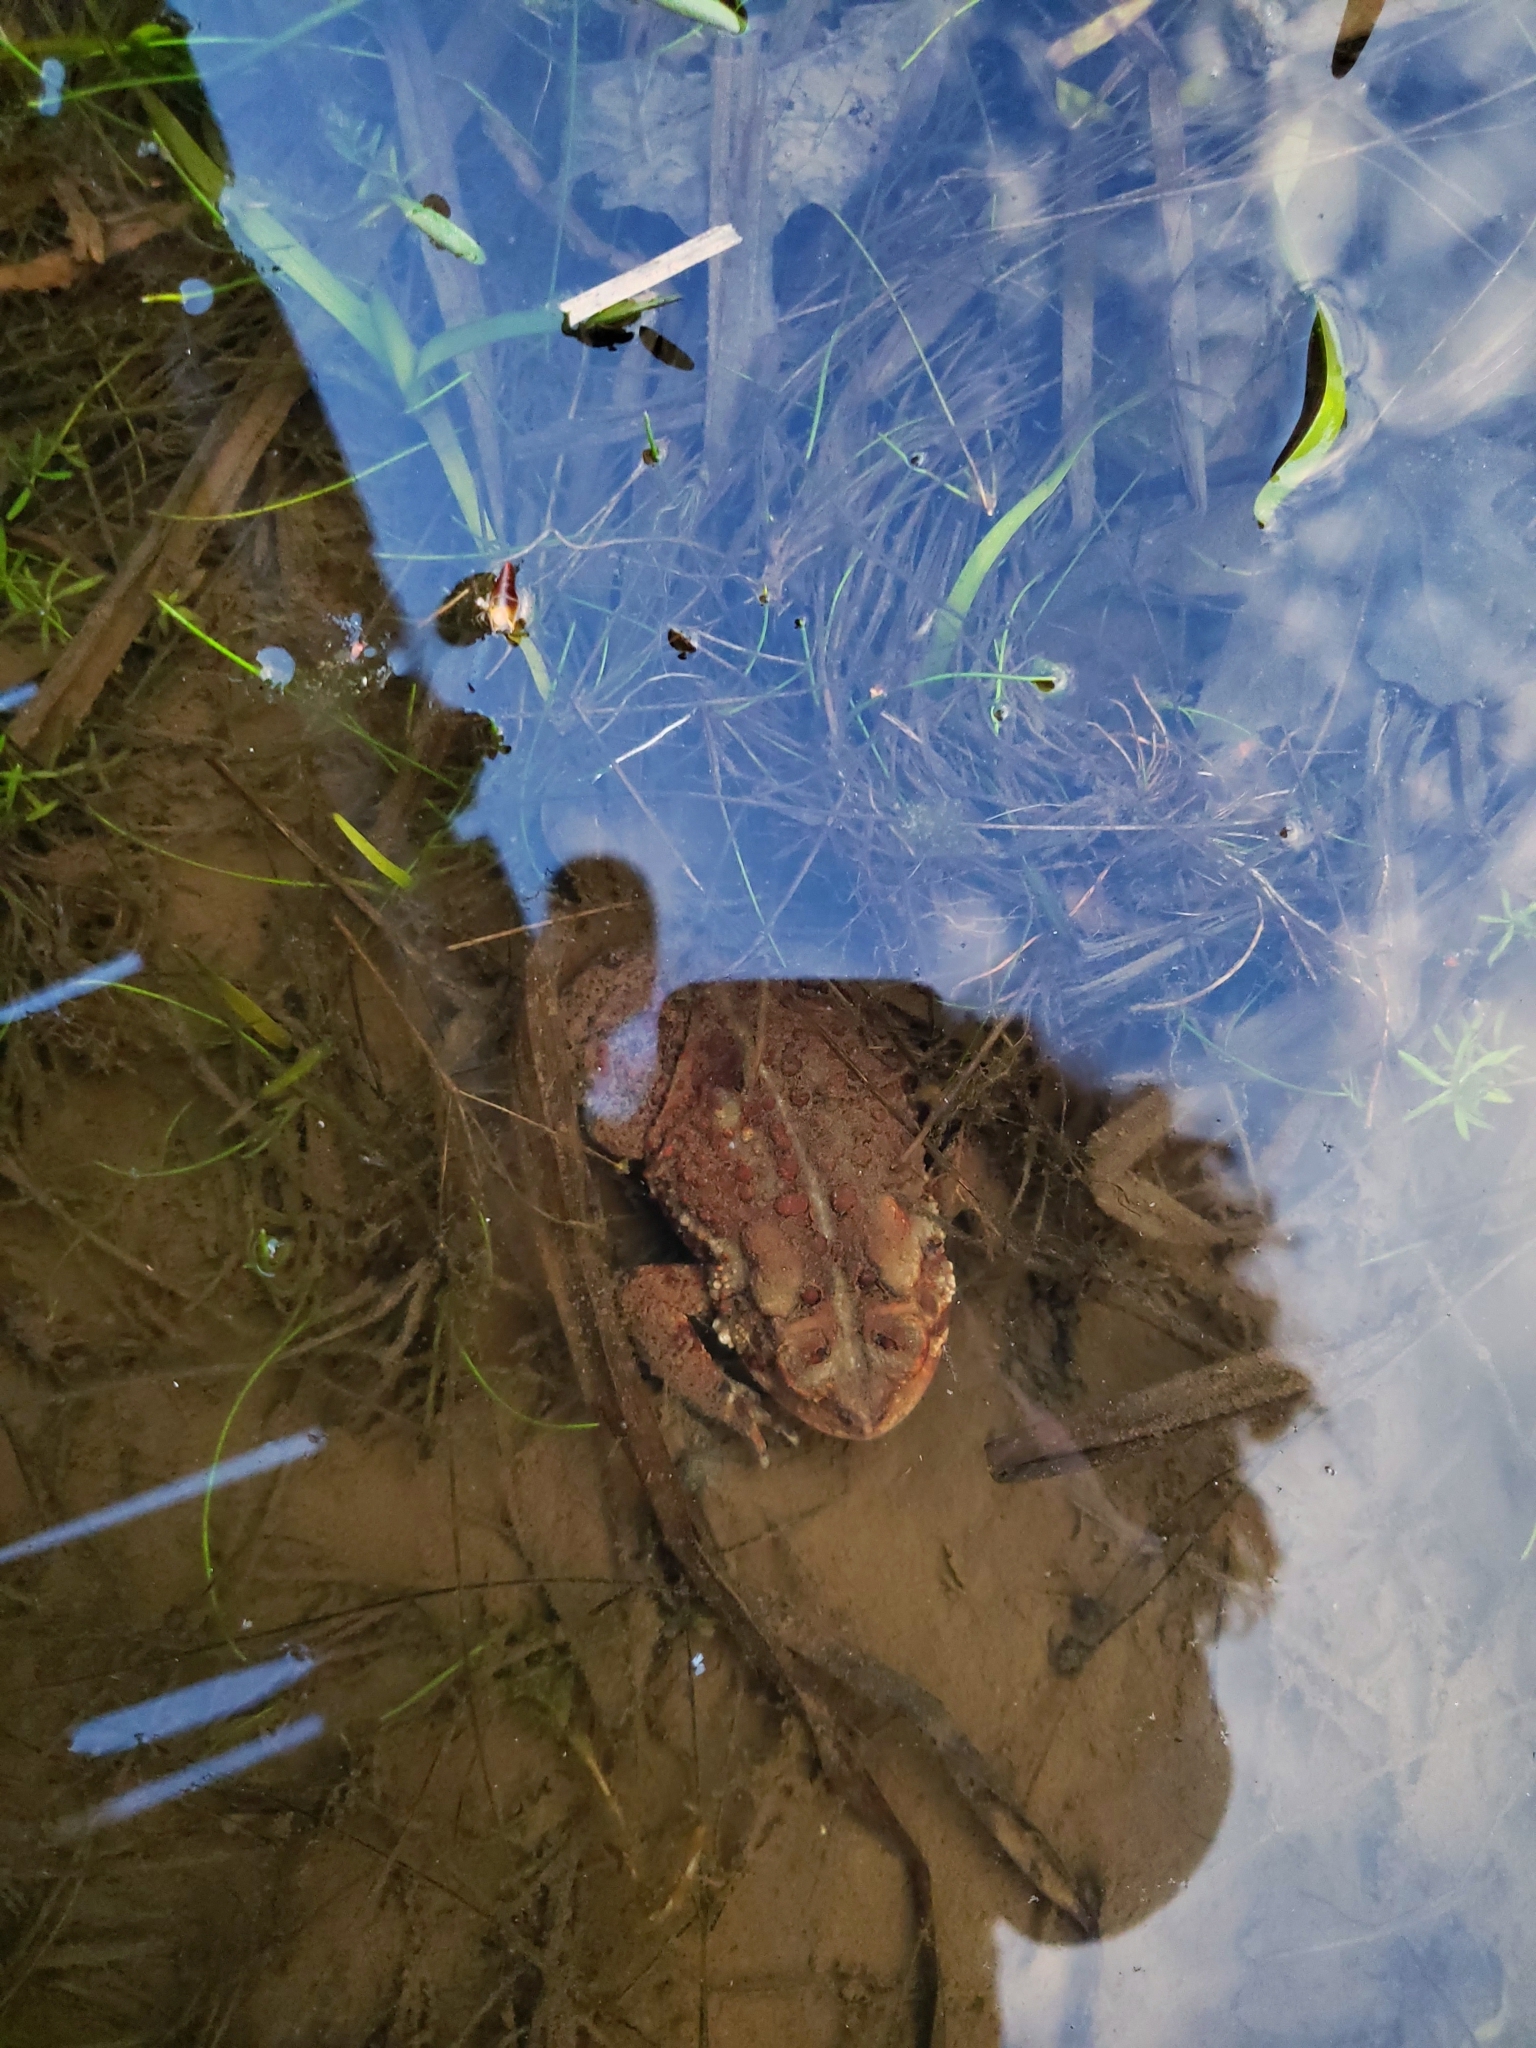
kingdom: Animalia
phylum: Chordata
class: Amphibia
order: Anura
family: Bufonidae
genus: Anaxyrus
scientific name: Anaxyrus americanus
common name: American toad
